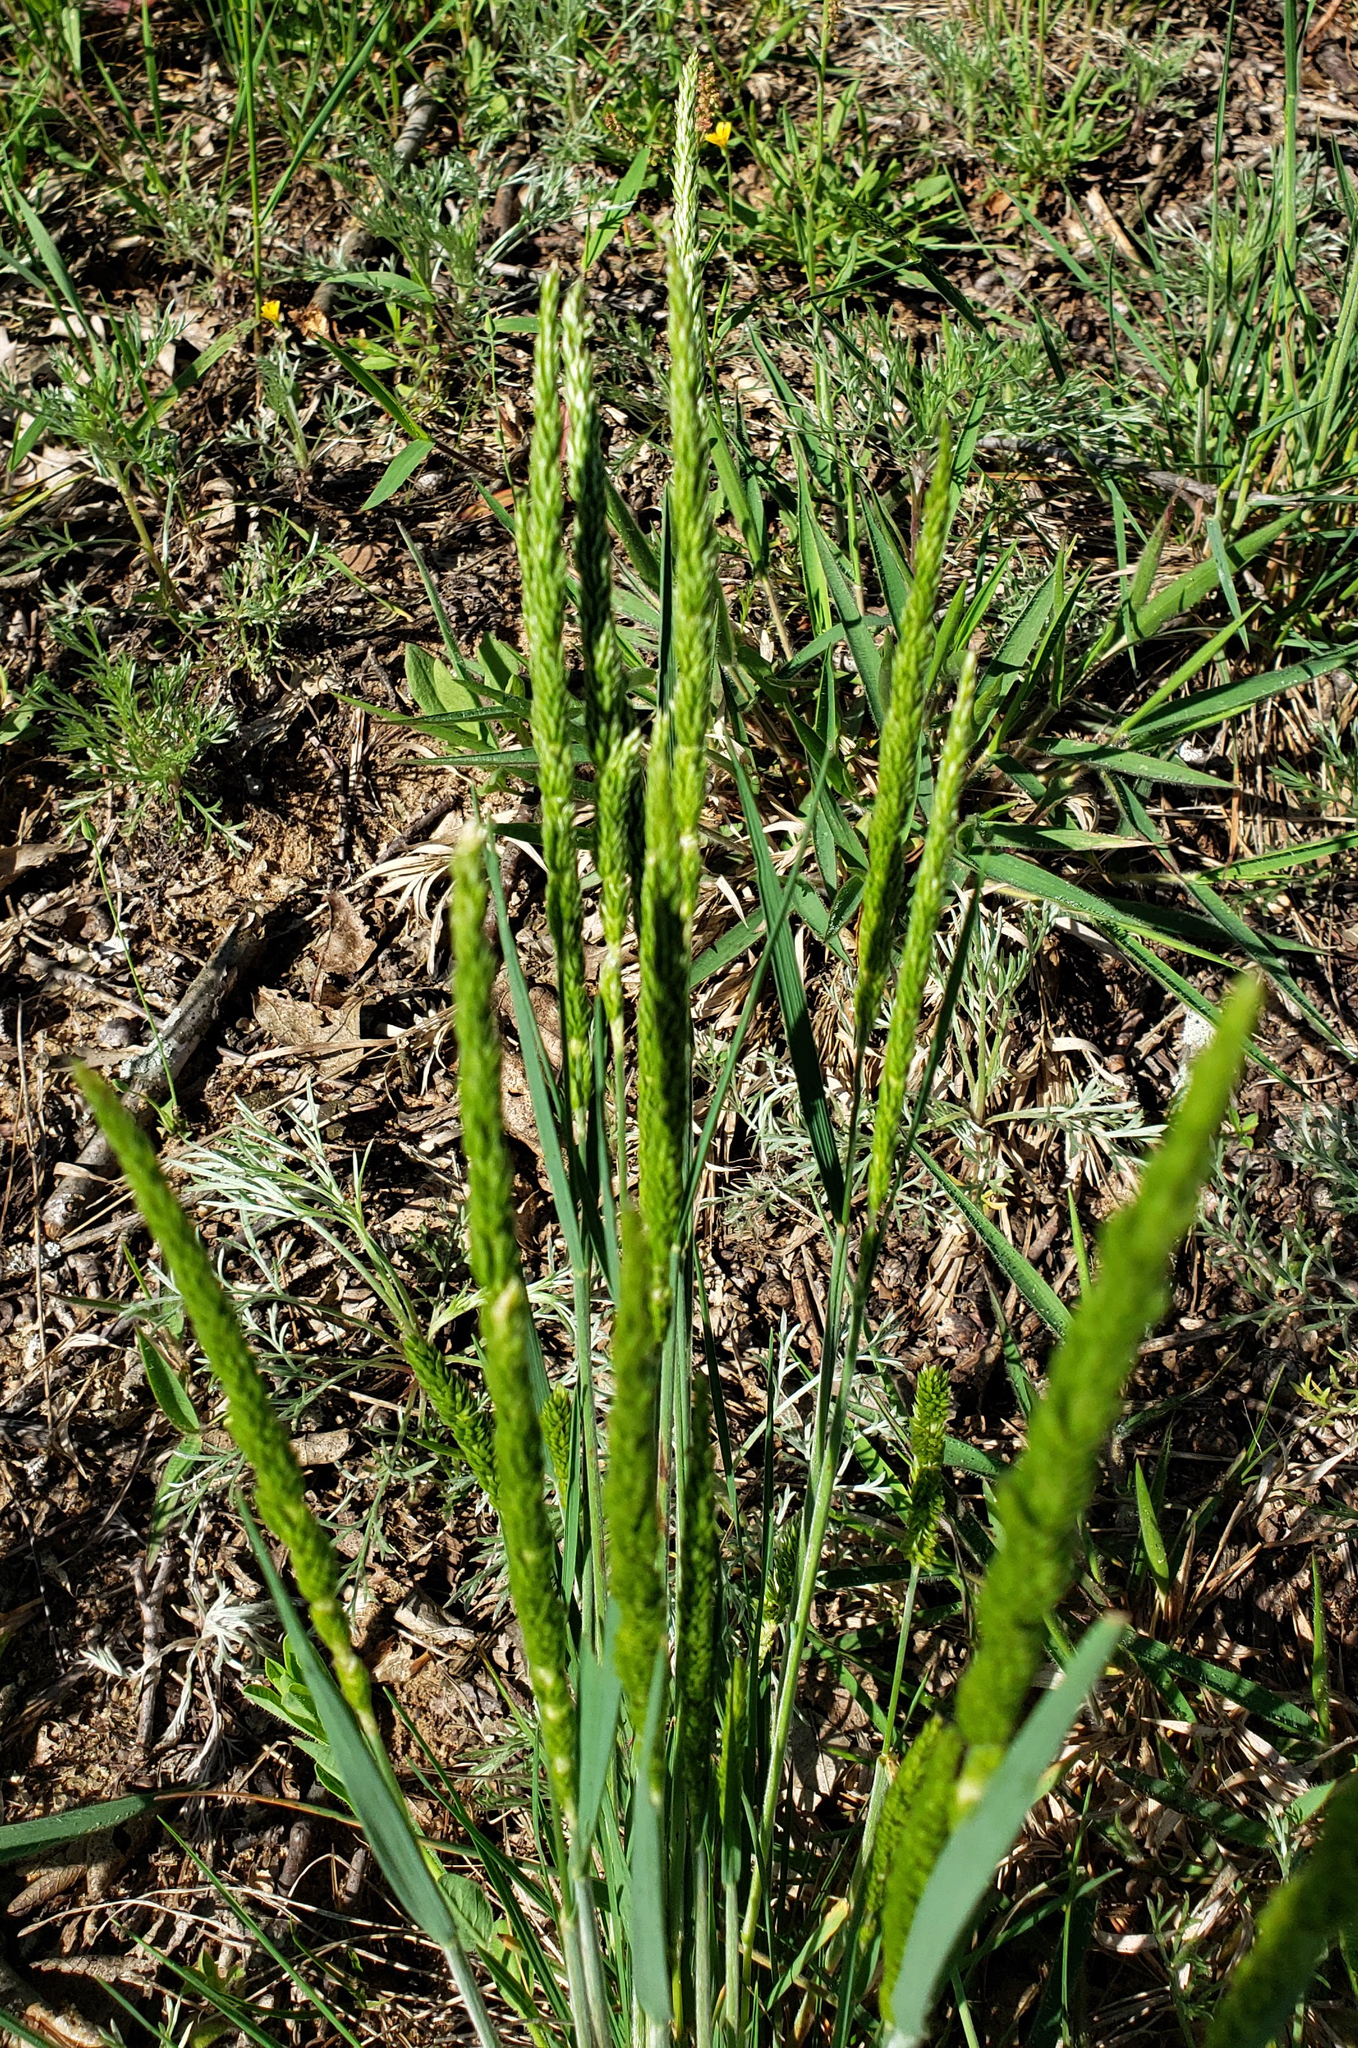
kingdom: Plantae
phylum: Tracheophyta
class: Liliopsida
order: Poales
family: Poaceae
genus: Koeleria
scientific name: Koeleria macrantha
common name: Crested hair-grass
